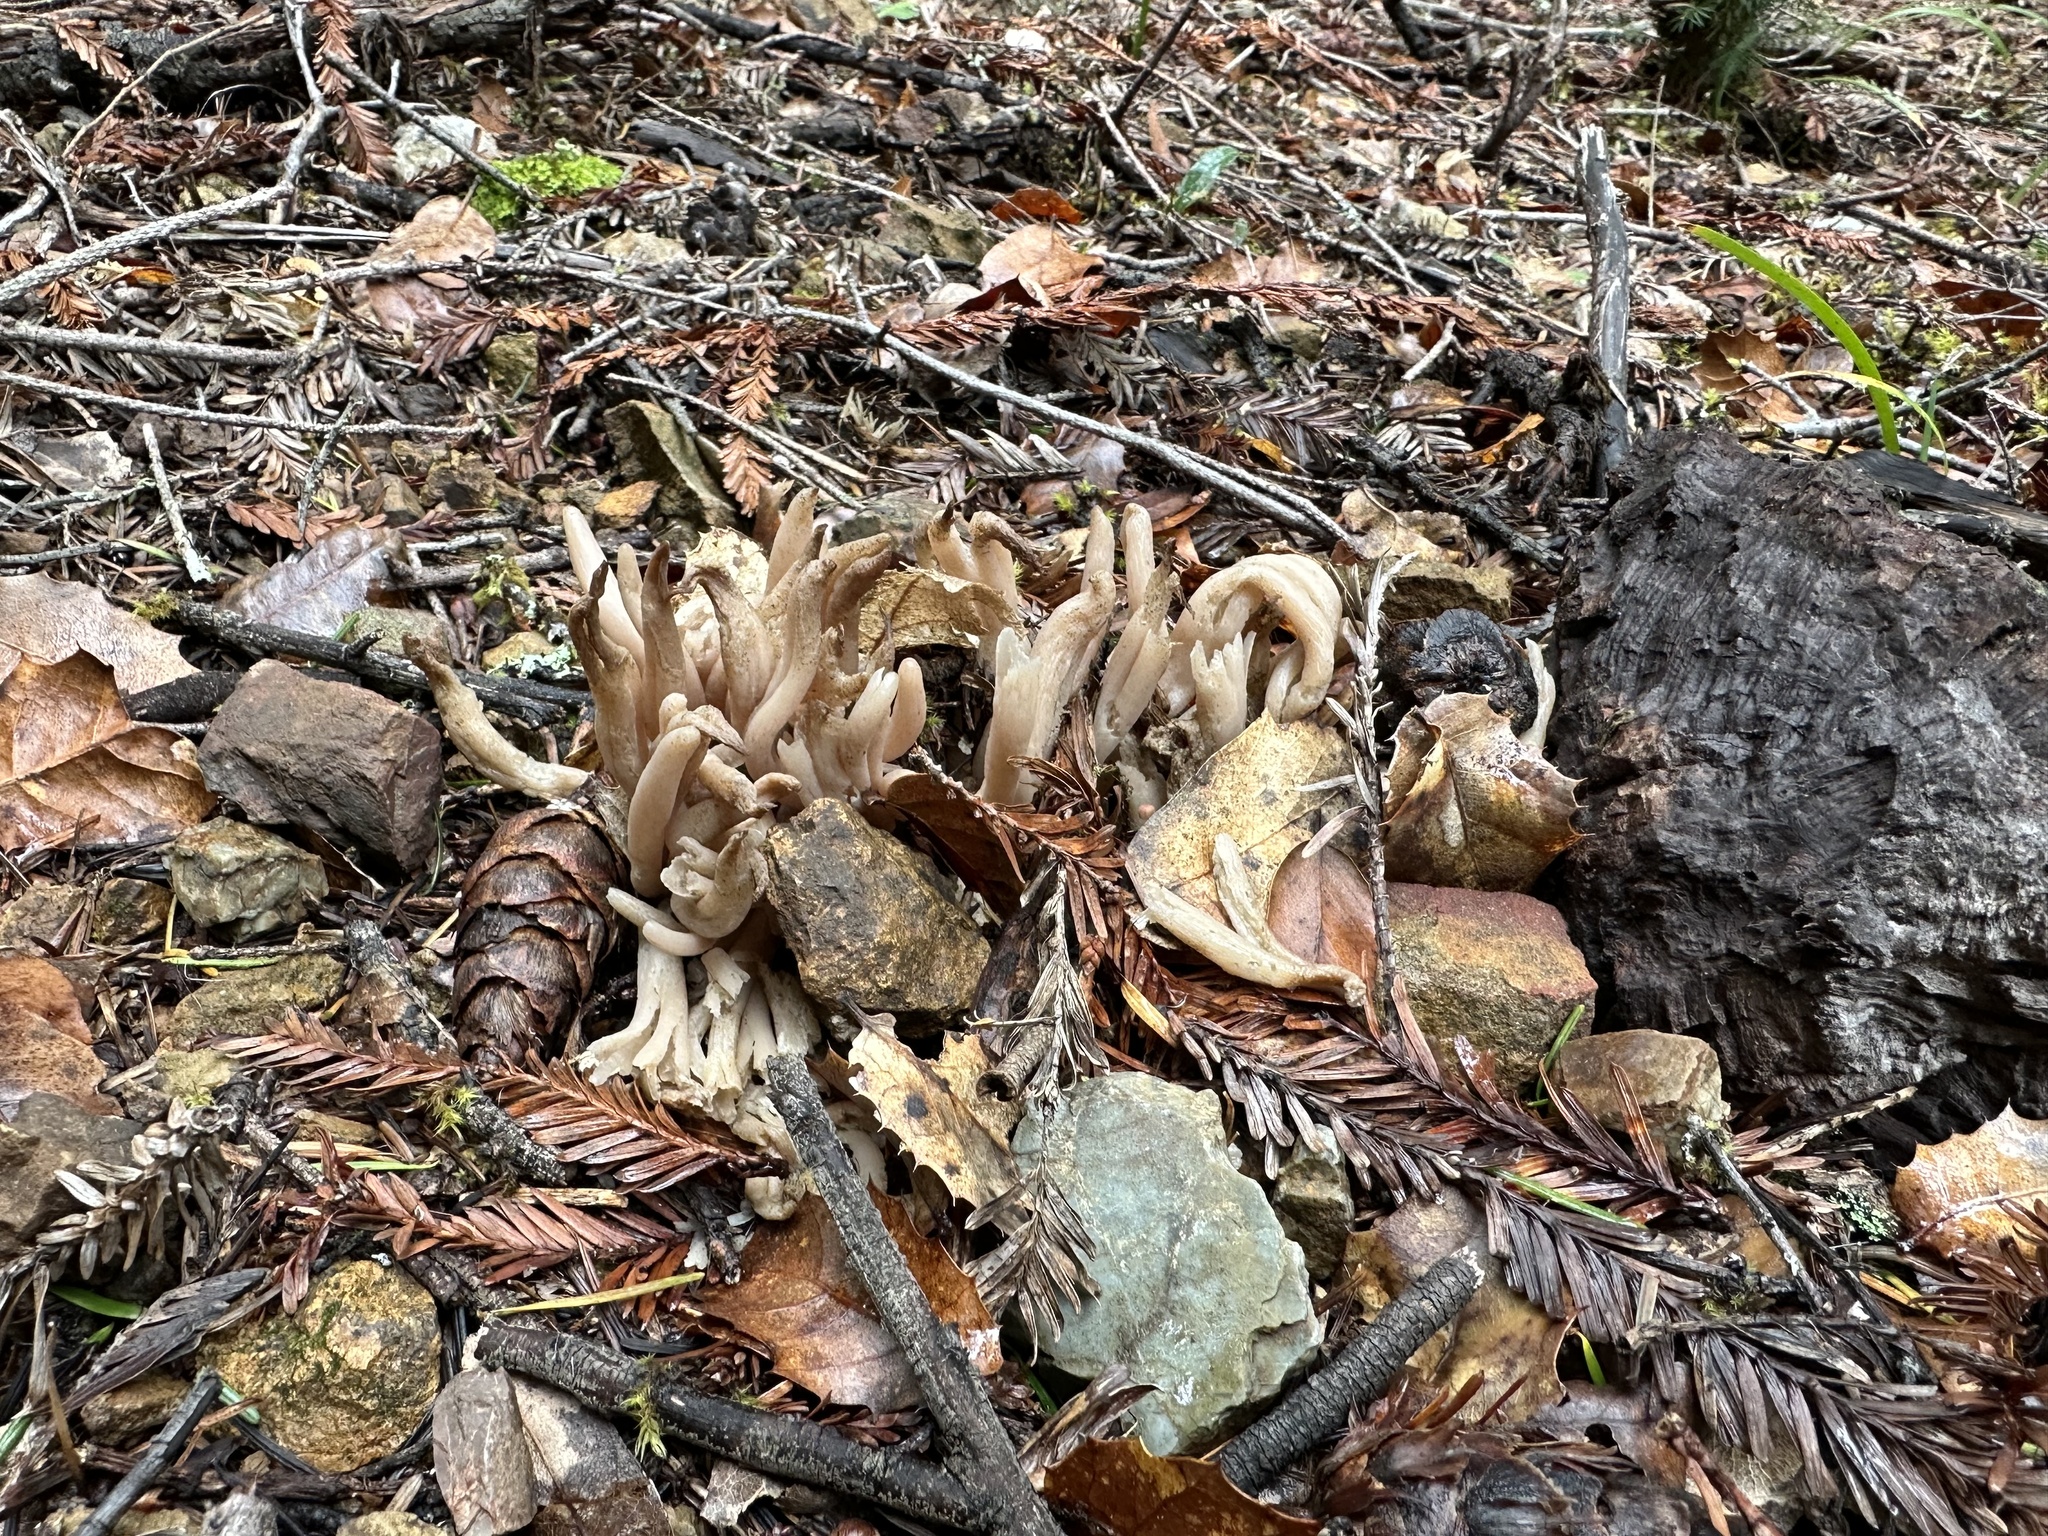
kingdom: Fungi
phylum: Basidiomycota
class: Agaricomycetes
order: Agaricales
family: Clavariaceae
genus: Clavaria
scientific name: Clavaria fumosa
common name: Smoky spindles
